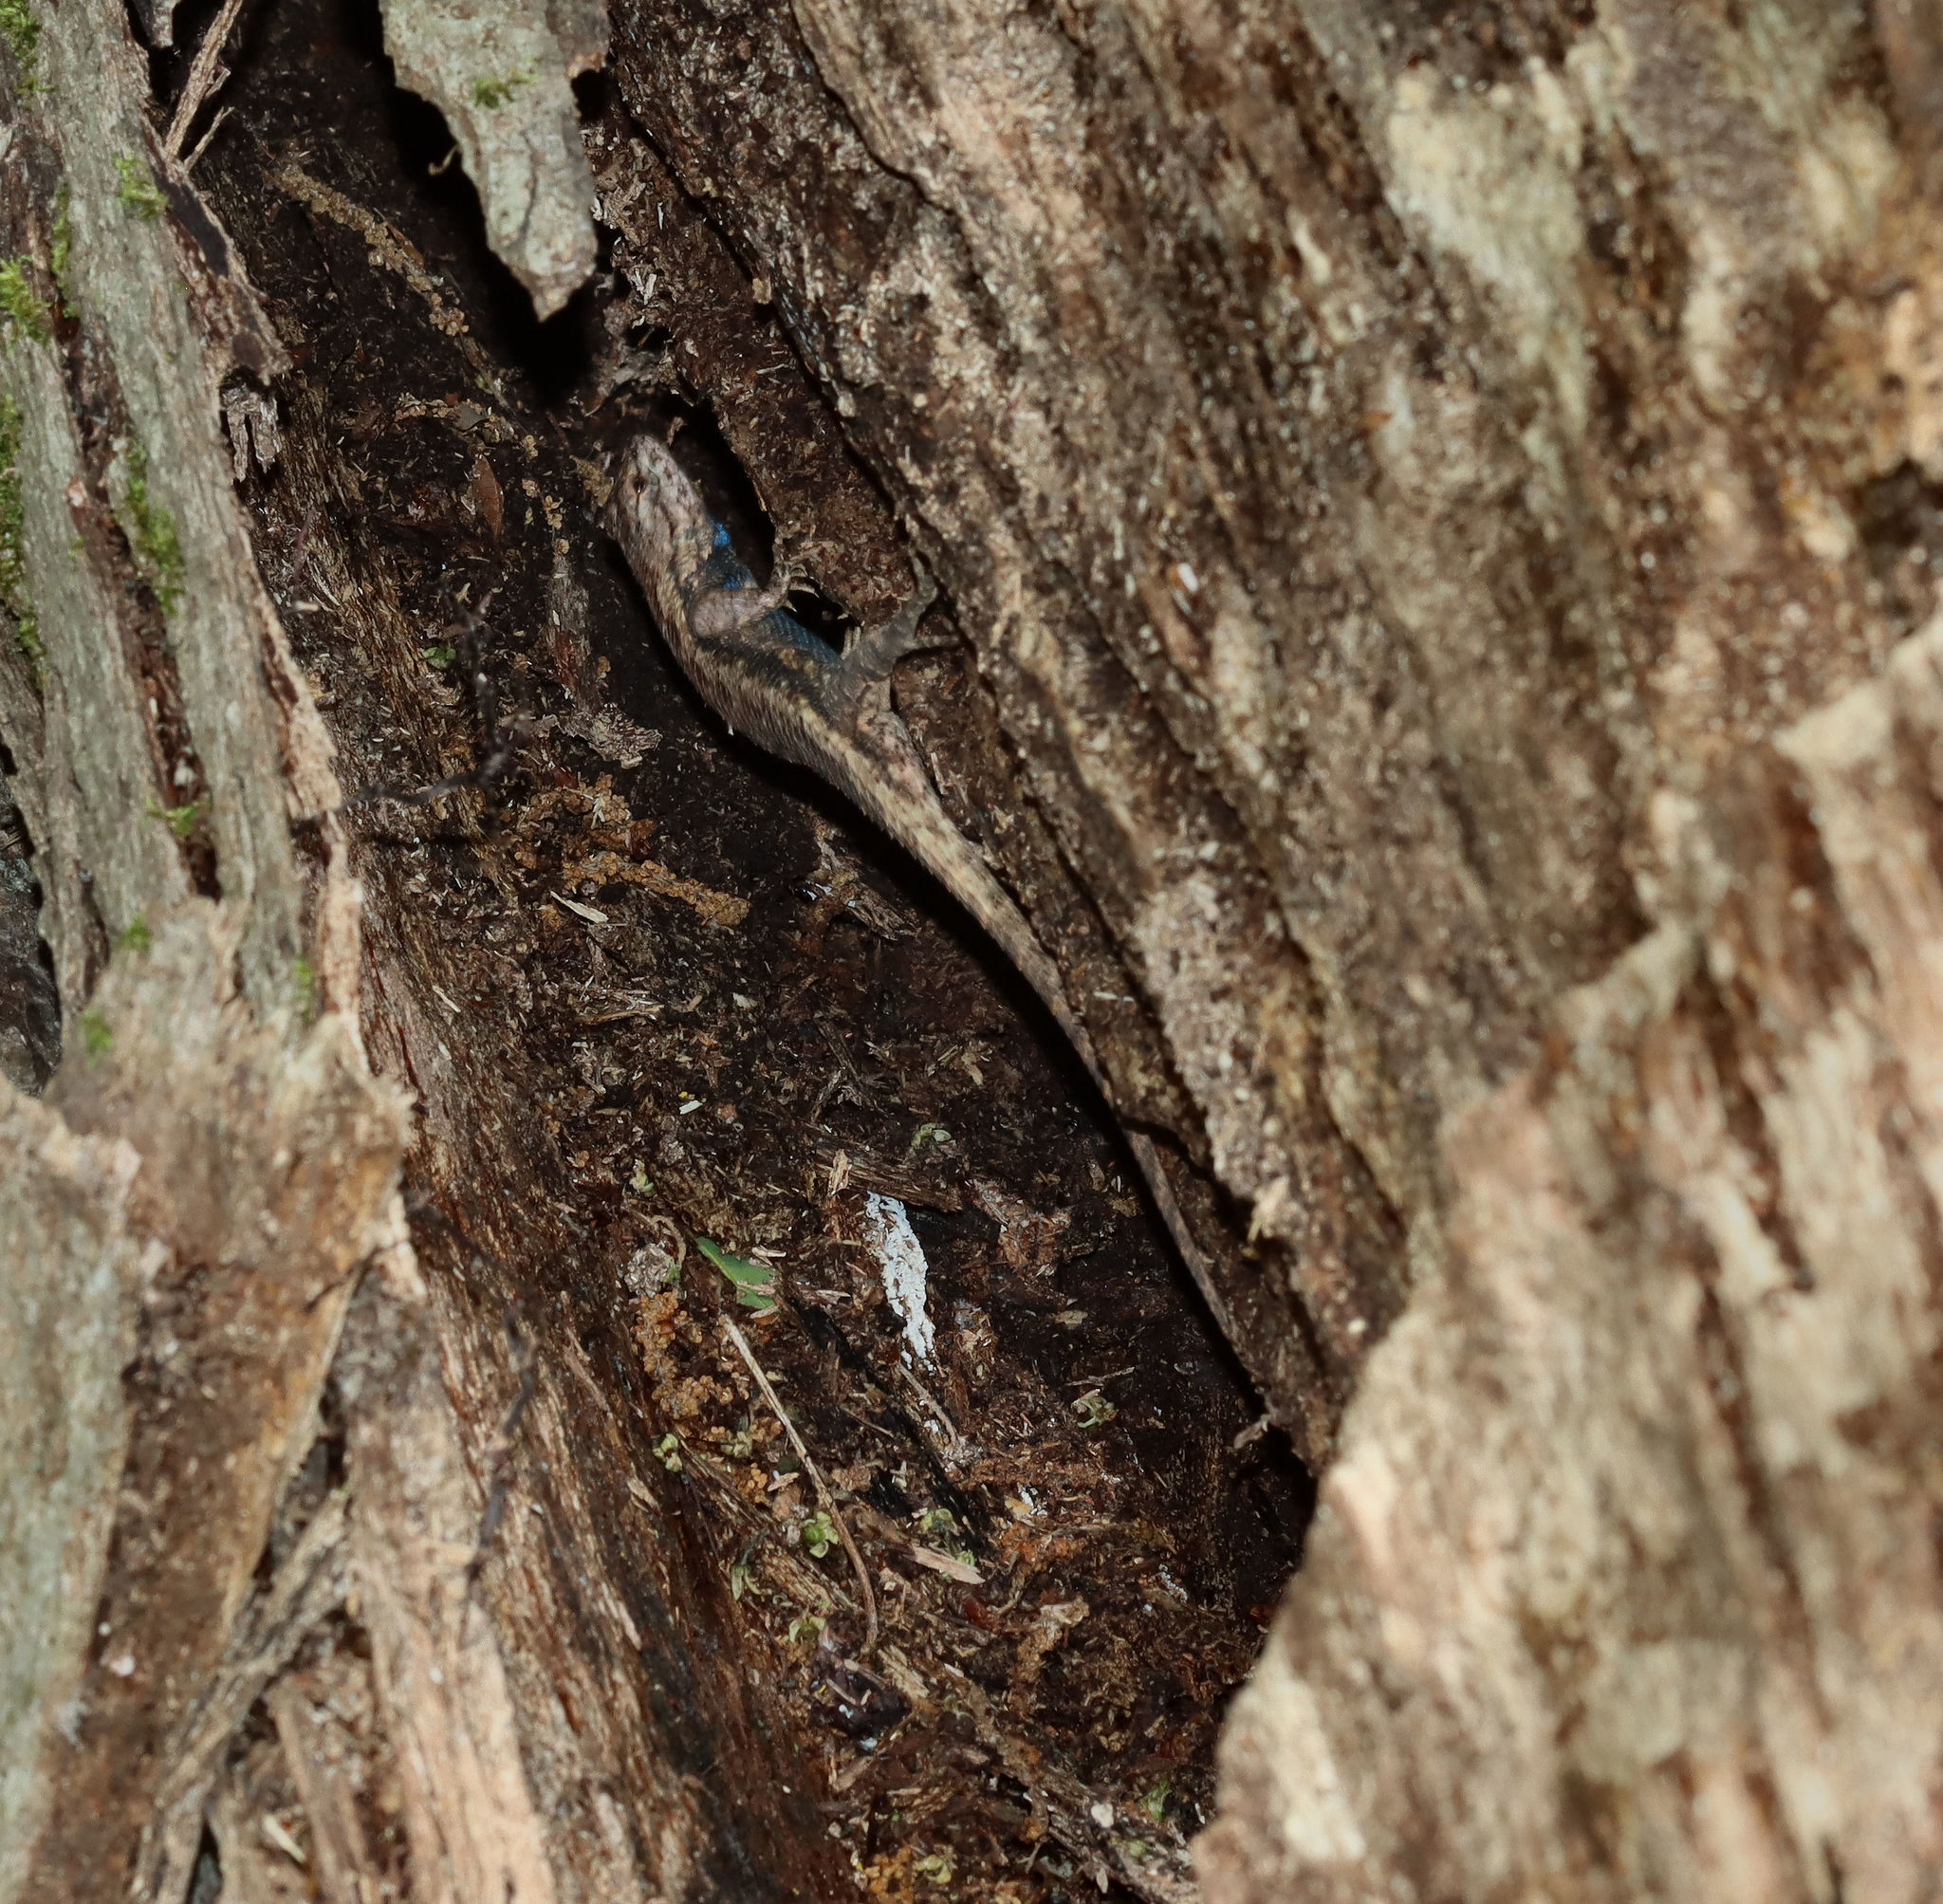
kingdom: Animalia
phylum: Chordata
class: Squamata
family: Phrynosomatidae
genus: Sceloporus
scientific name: Sceloporus consobrinus
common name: Southern prairie lizard
